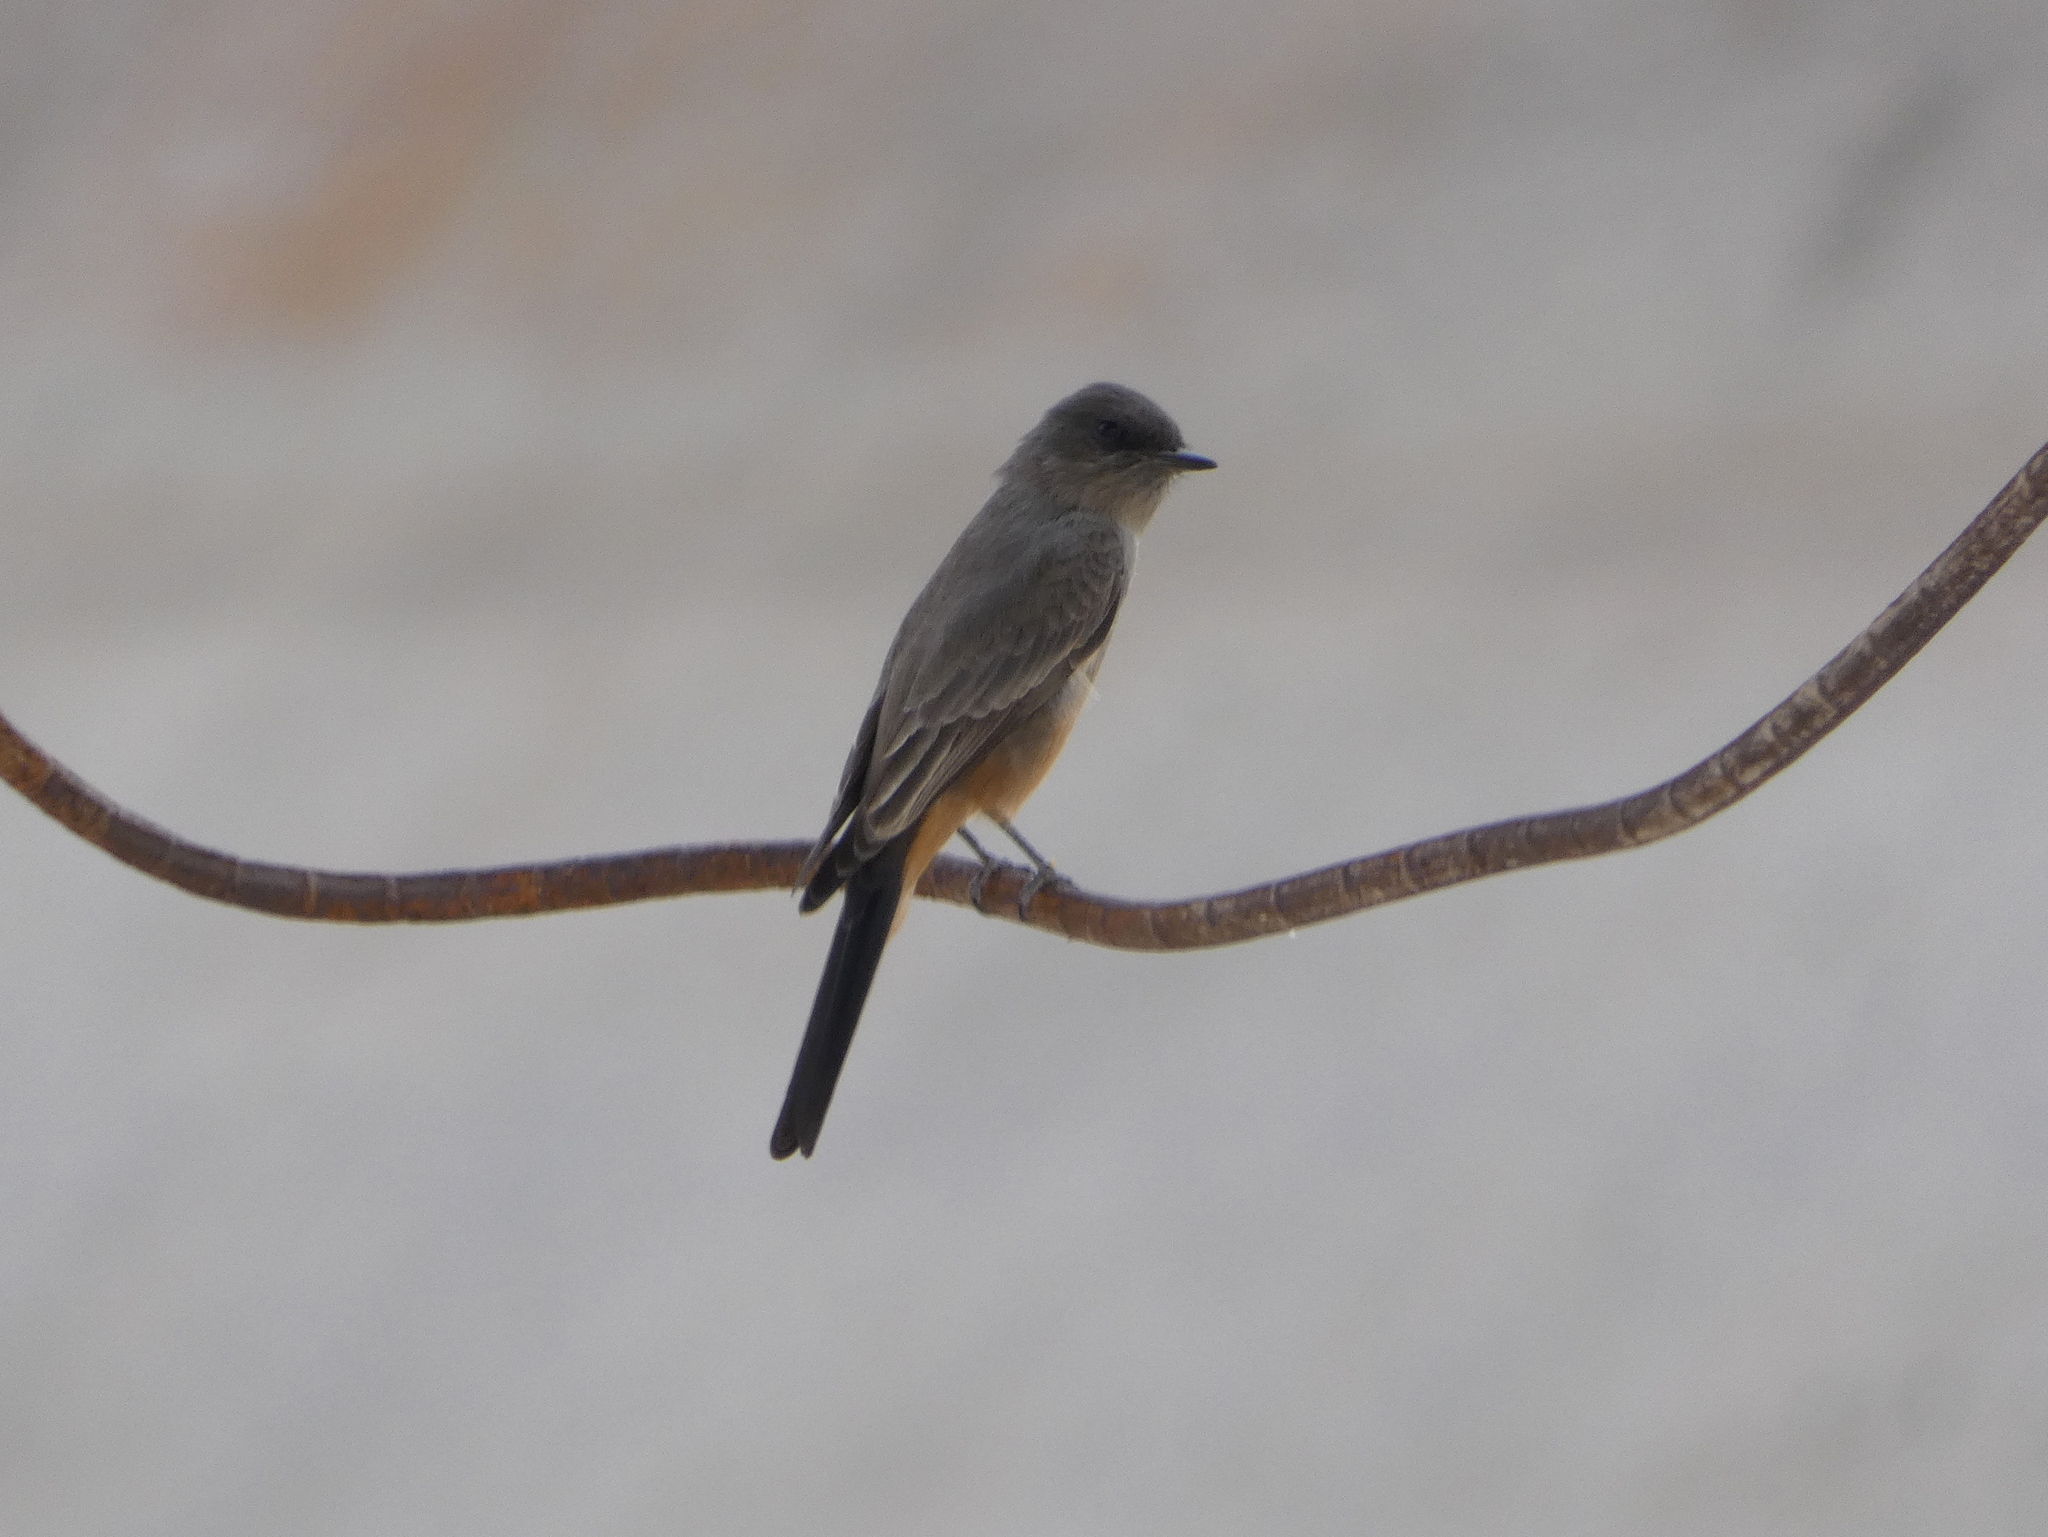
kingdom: Animalia
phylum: Chordata
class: Aves
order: Passeriformes
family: Tyrannidae
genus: Sayornis
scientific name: Sayornis saya
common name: Say's phoebe
